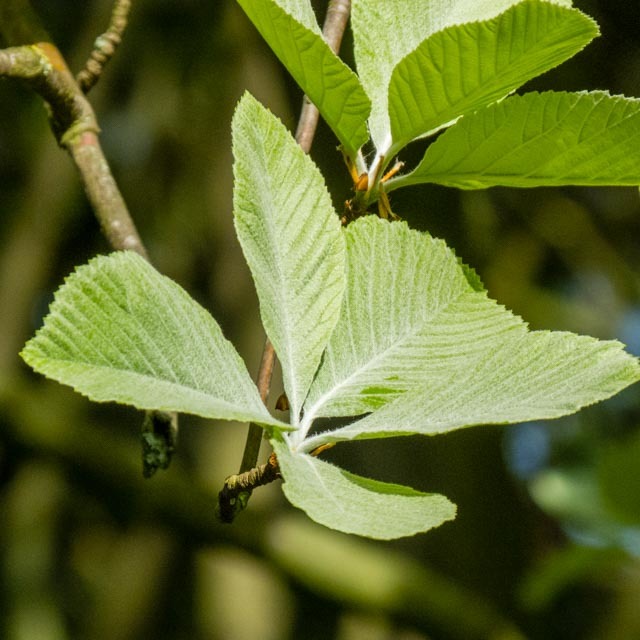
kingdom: Plantae
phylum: Tracheophyta
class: Magnoliopsida
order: Rosales
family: Rosaceae
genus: Aria
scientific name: Aria edulis
